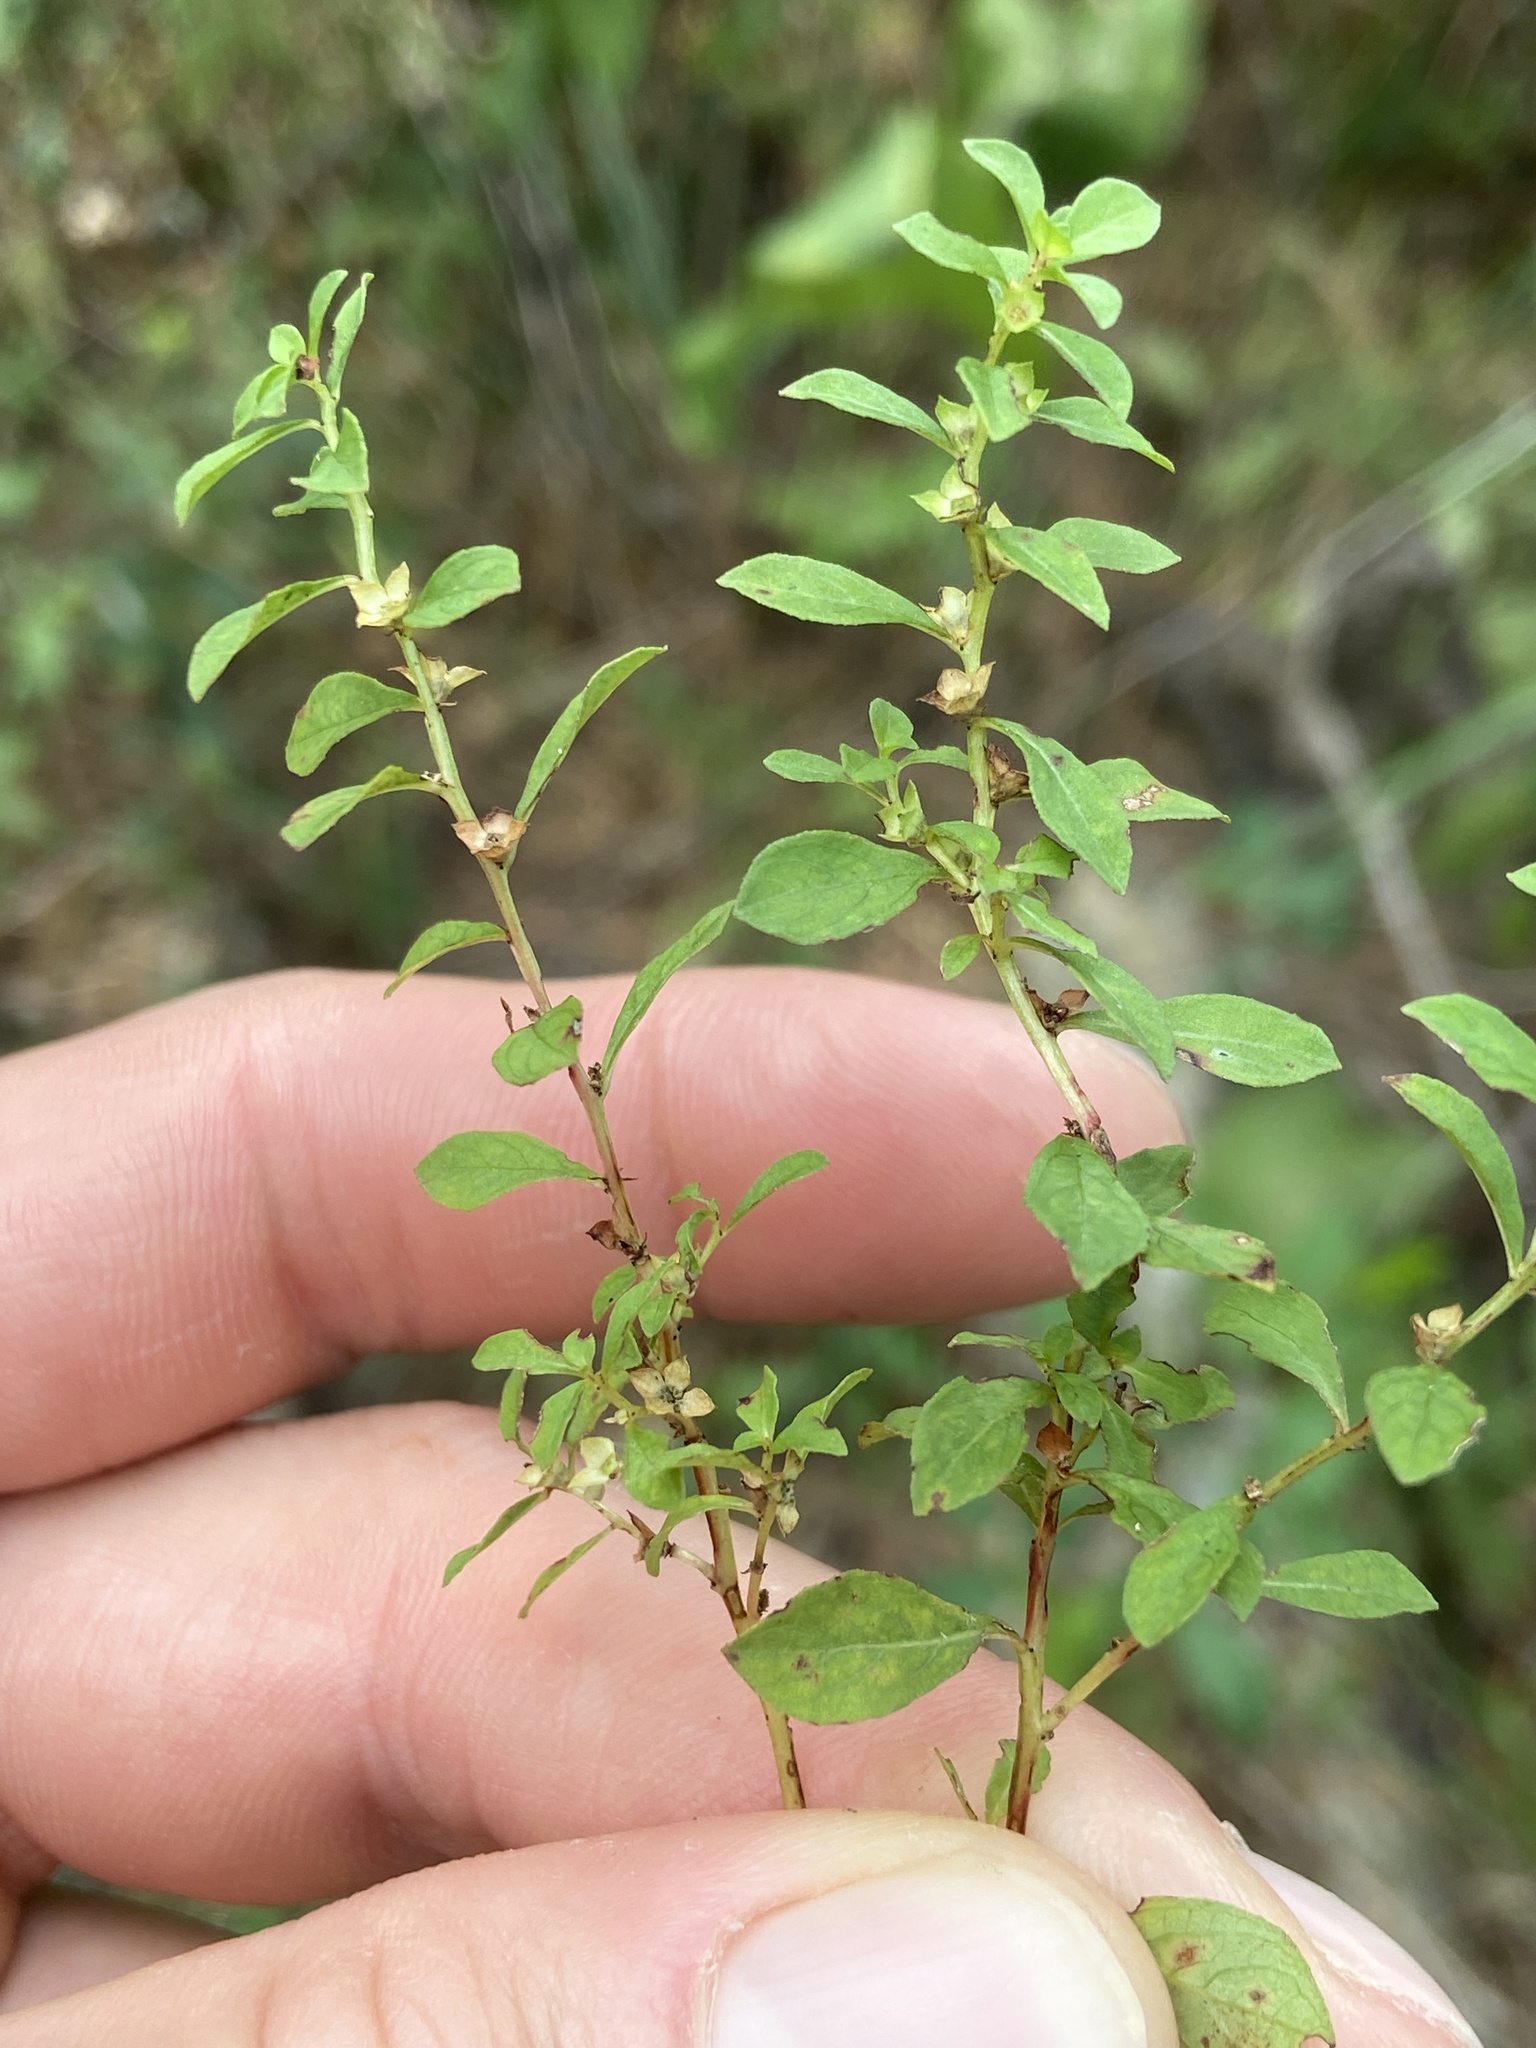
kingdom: Plantae
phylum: Tracheophyta
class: Magnoliopsida
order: Myrtales
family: Onagraceae
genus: Ludwigia
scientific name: Ludwigia microcarpa
